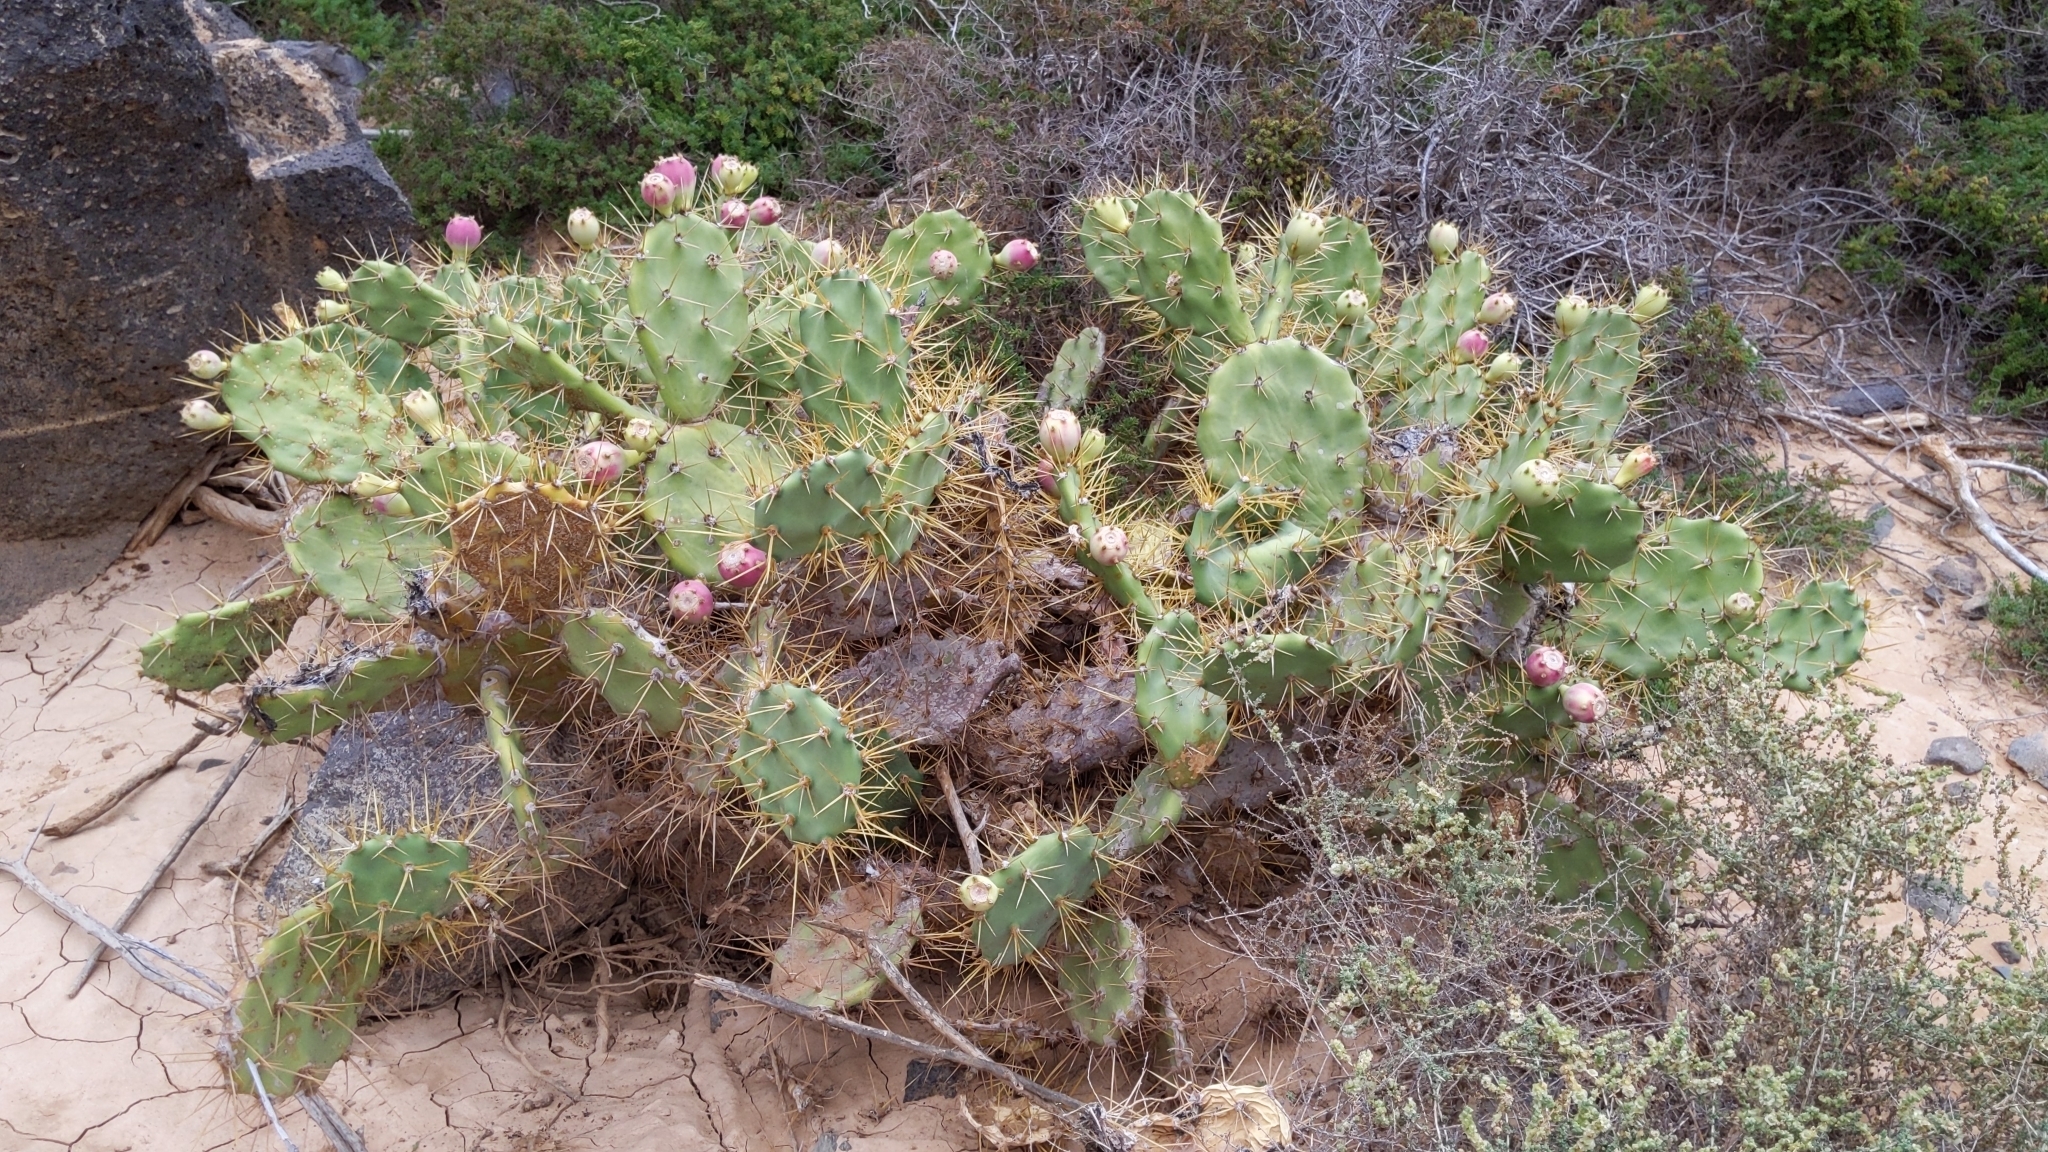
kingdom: Plantae
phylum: Tracheophyta
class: Magnoliopsida
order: Caryophyllales
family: Cactaceae
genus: Opuntia
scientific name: Opuntia stricta
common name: Erect pricklypear
